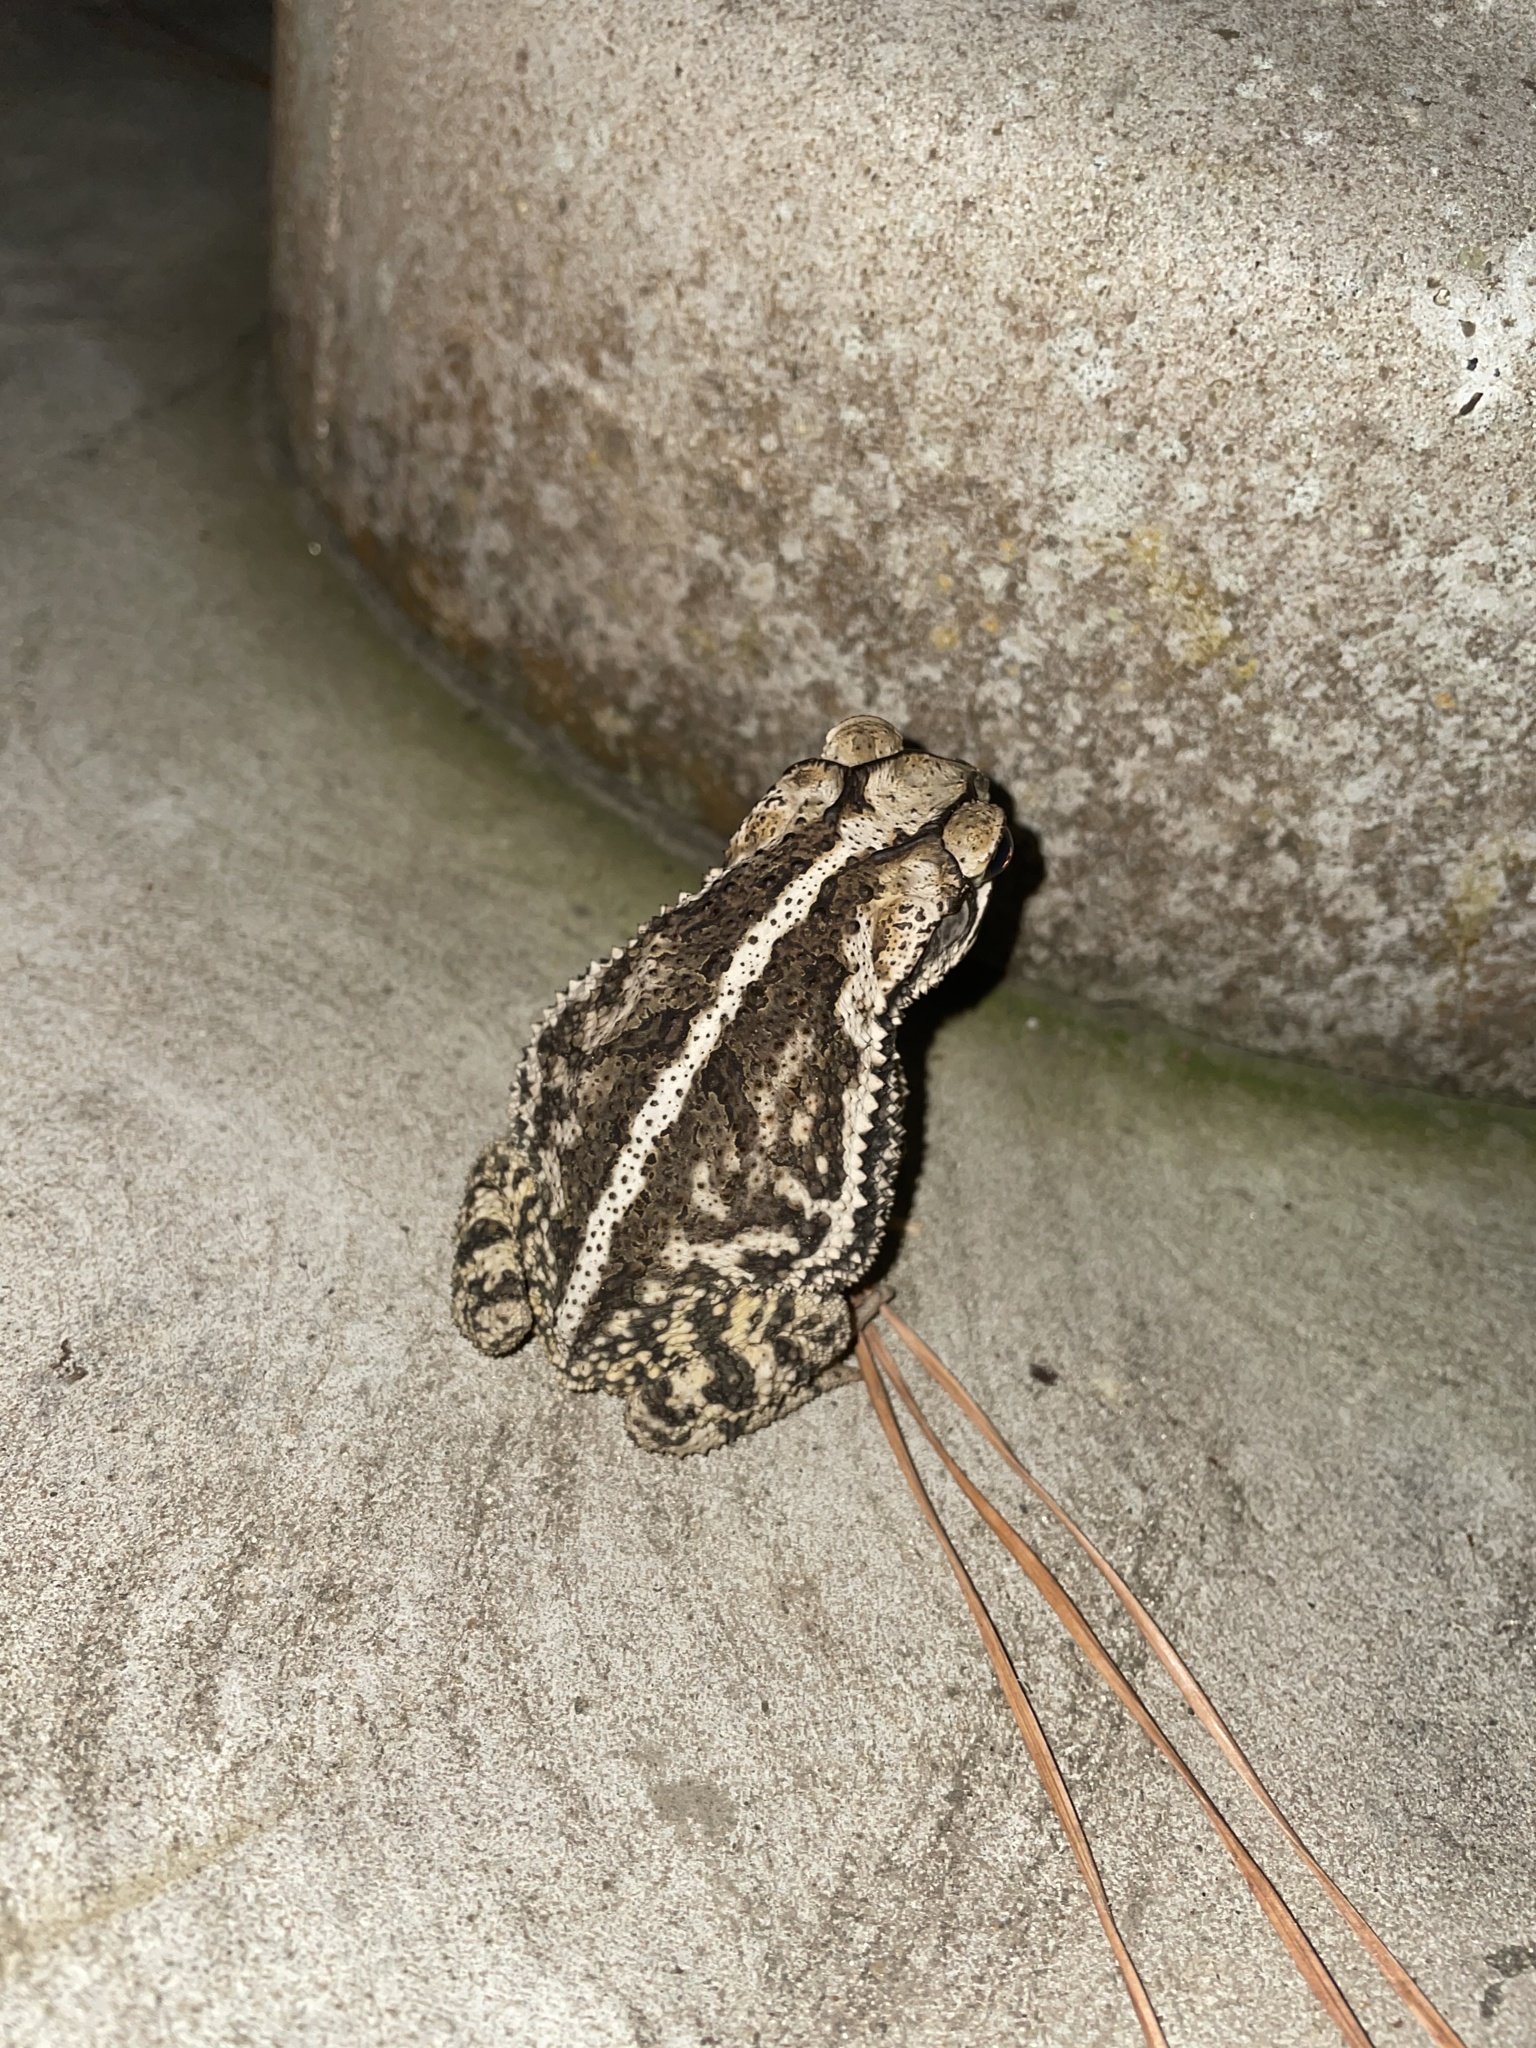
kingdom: Animalia
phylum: Chordata
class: Amphibia
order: Anura
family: Bufonidae
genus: Incilius
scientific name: Incilius nebulifer
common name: Gulf coast toad
